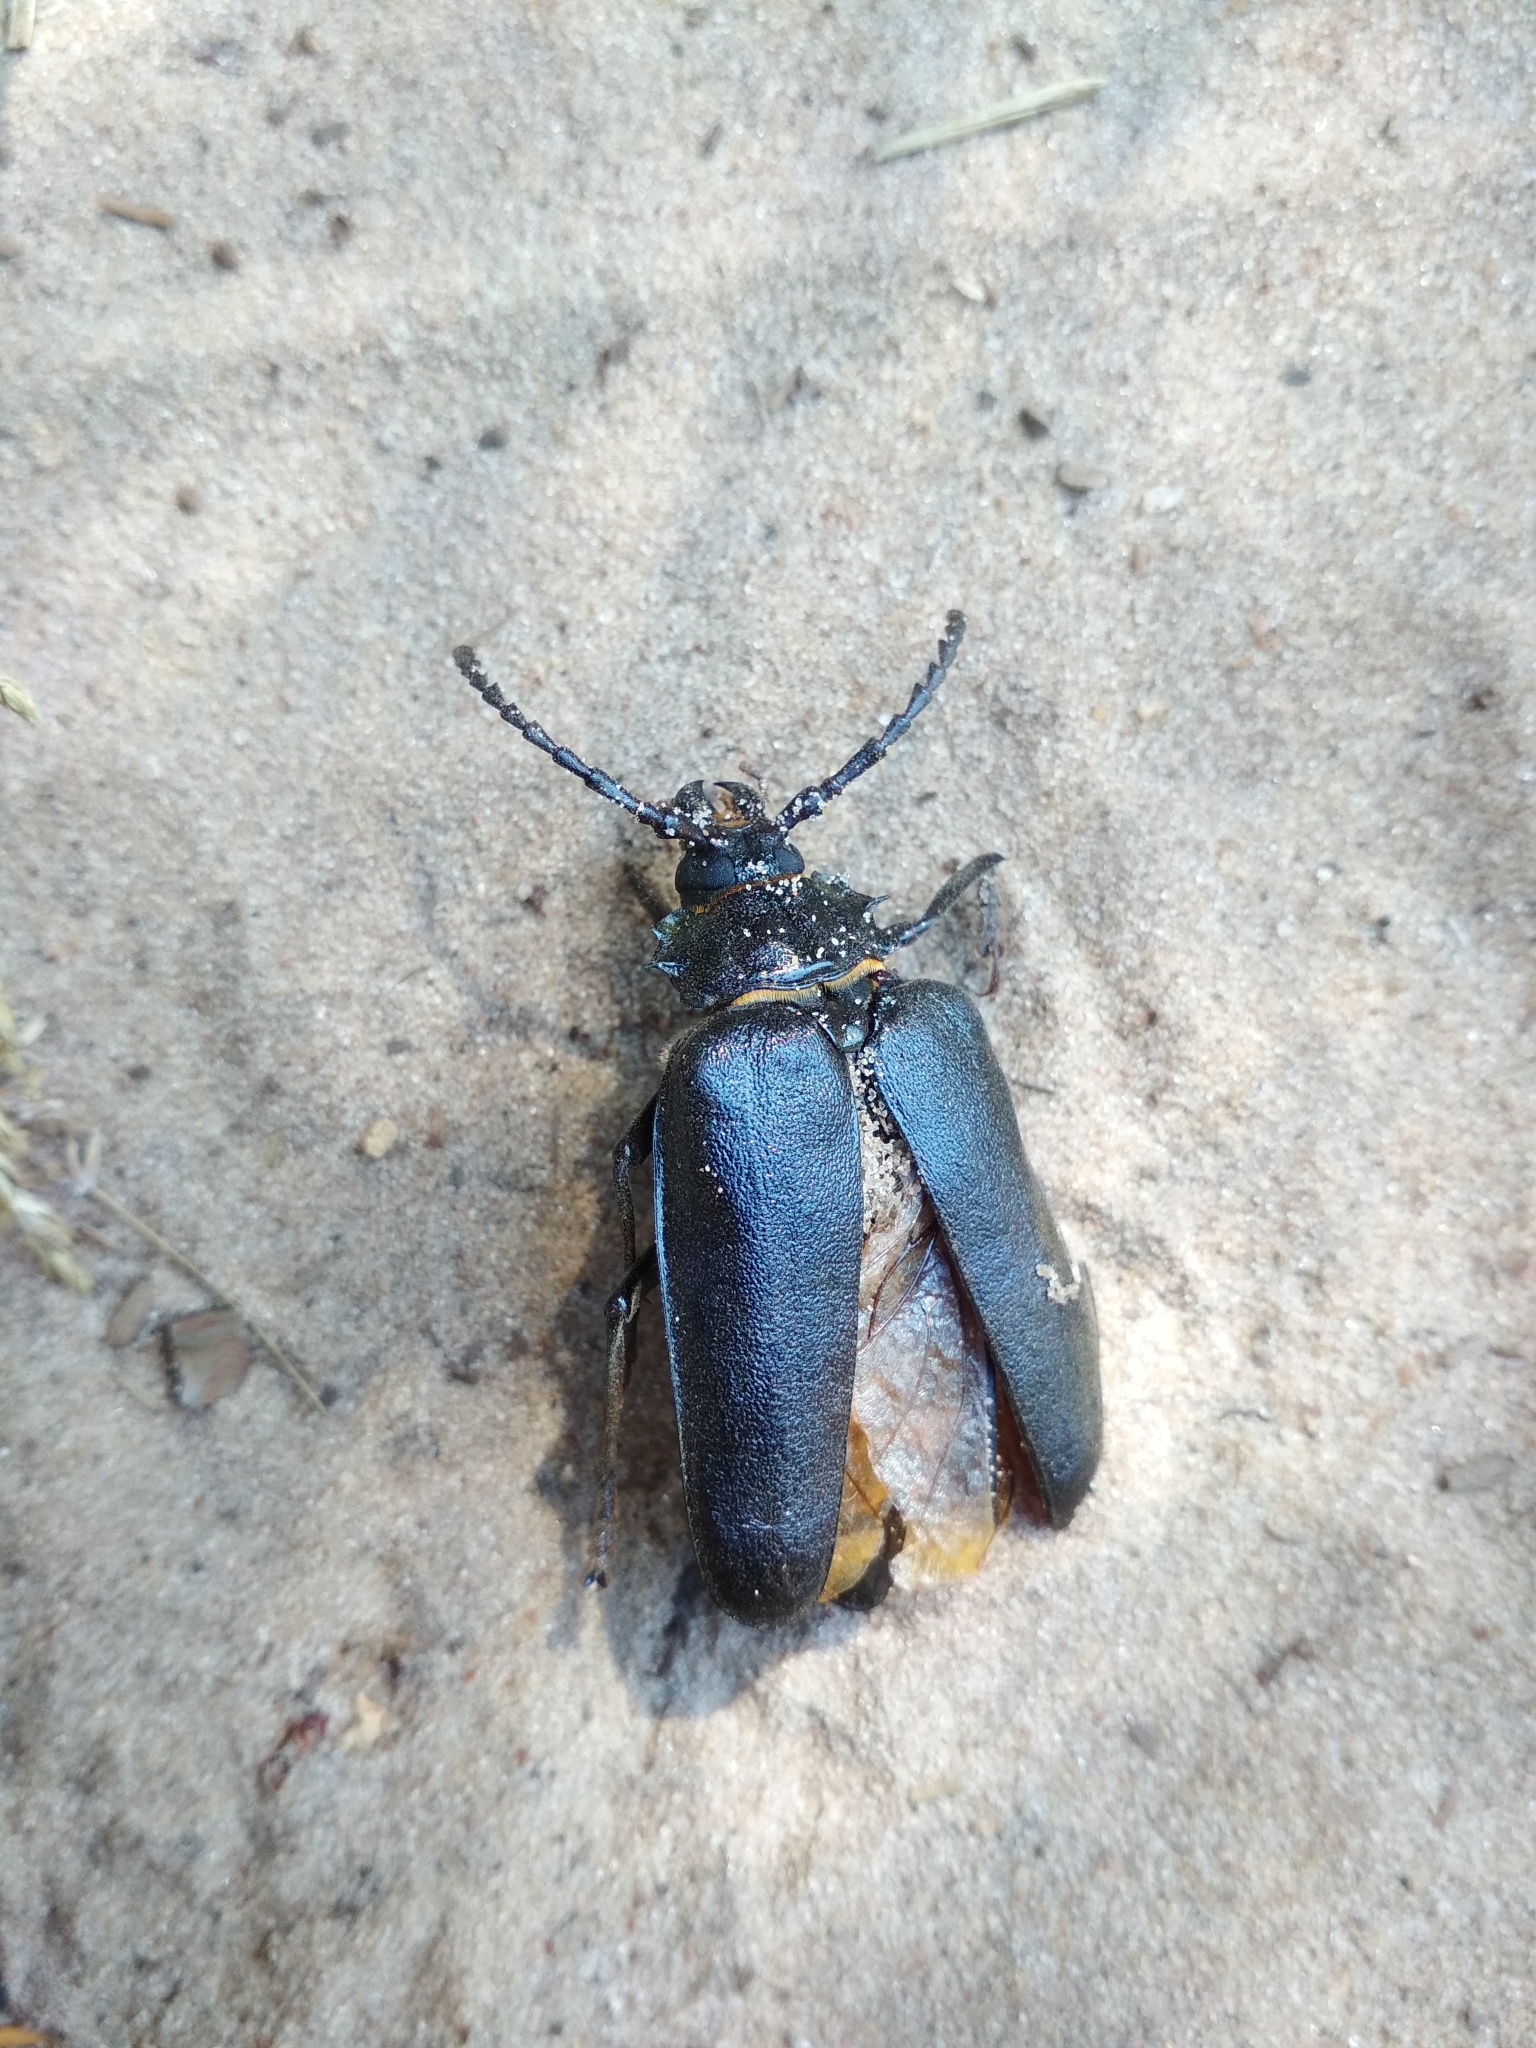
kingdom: Animalia
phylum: Arthropoda
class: Insecta
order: Coleoptera
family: Cerambycidae
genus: Prionus
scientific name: Prionus coriarius
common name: Tanner beetle
